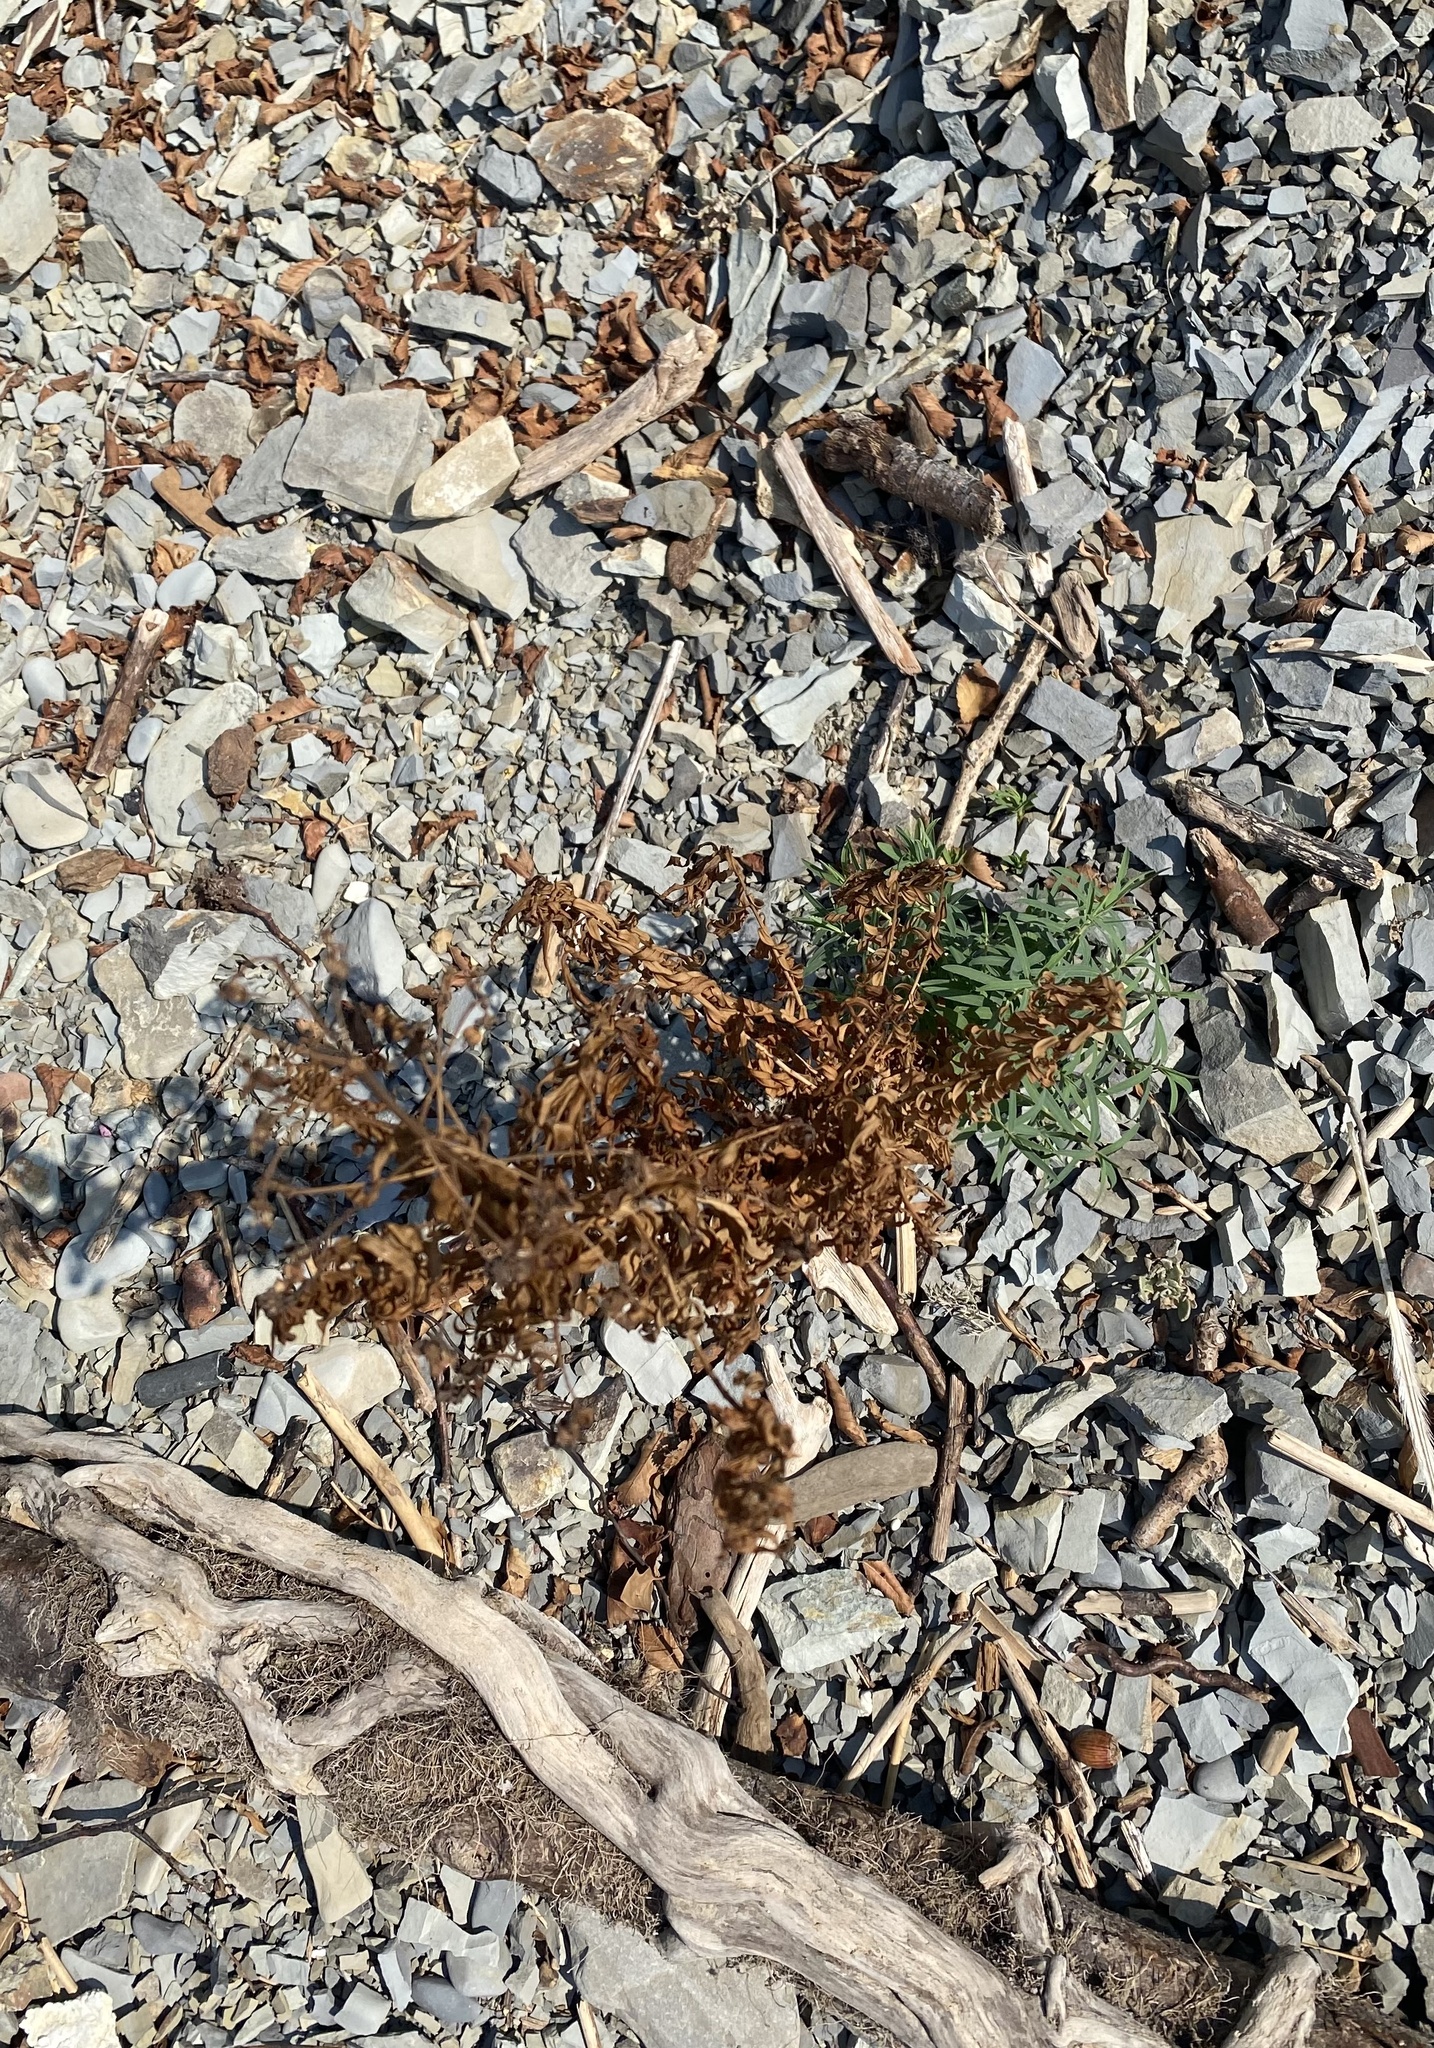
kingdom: Plantae
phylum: Tracheophyta
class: Magnoliopsida
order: Malpighiales
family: Euphorbiaceae
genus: Euphorbia
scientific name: Euphorbia virgata
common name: Leafy spurge
